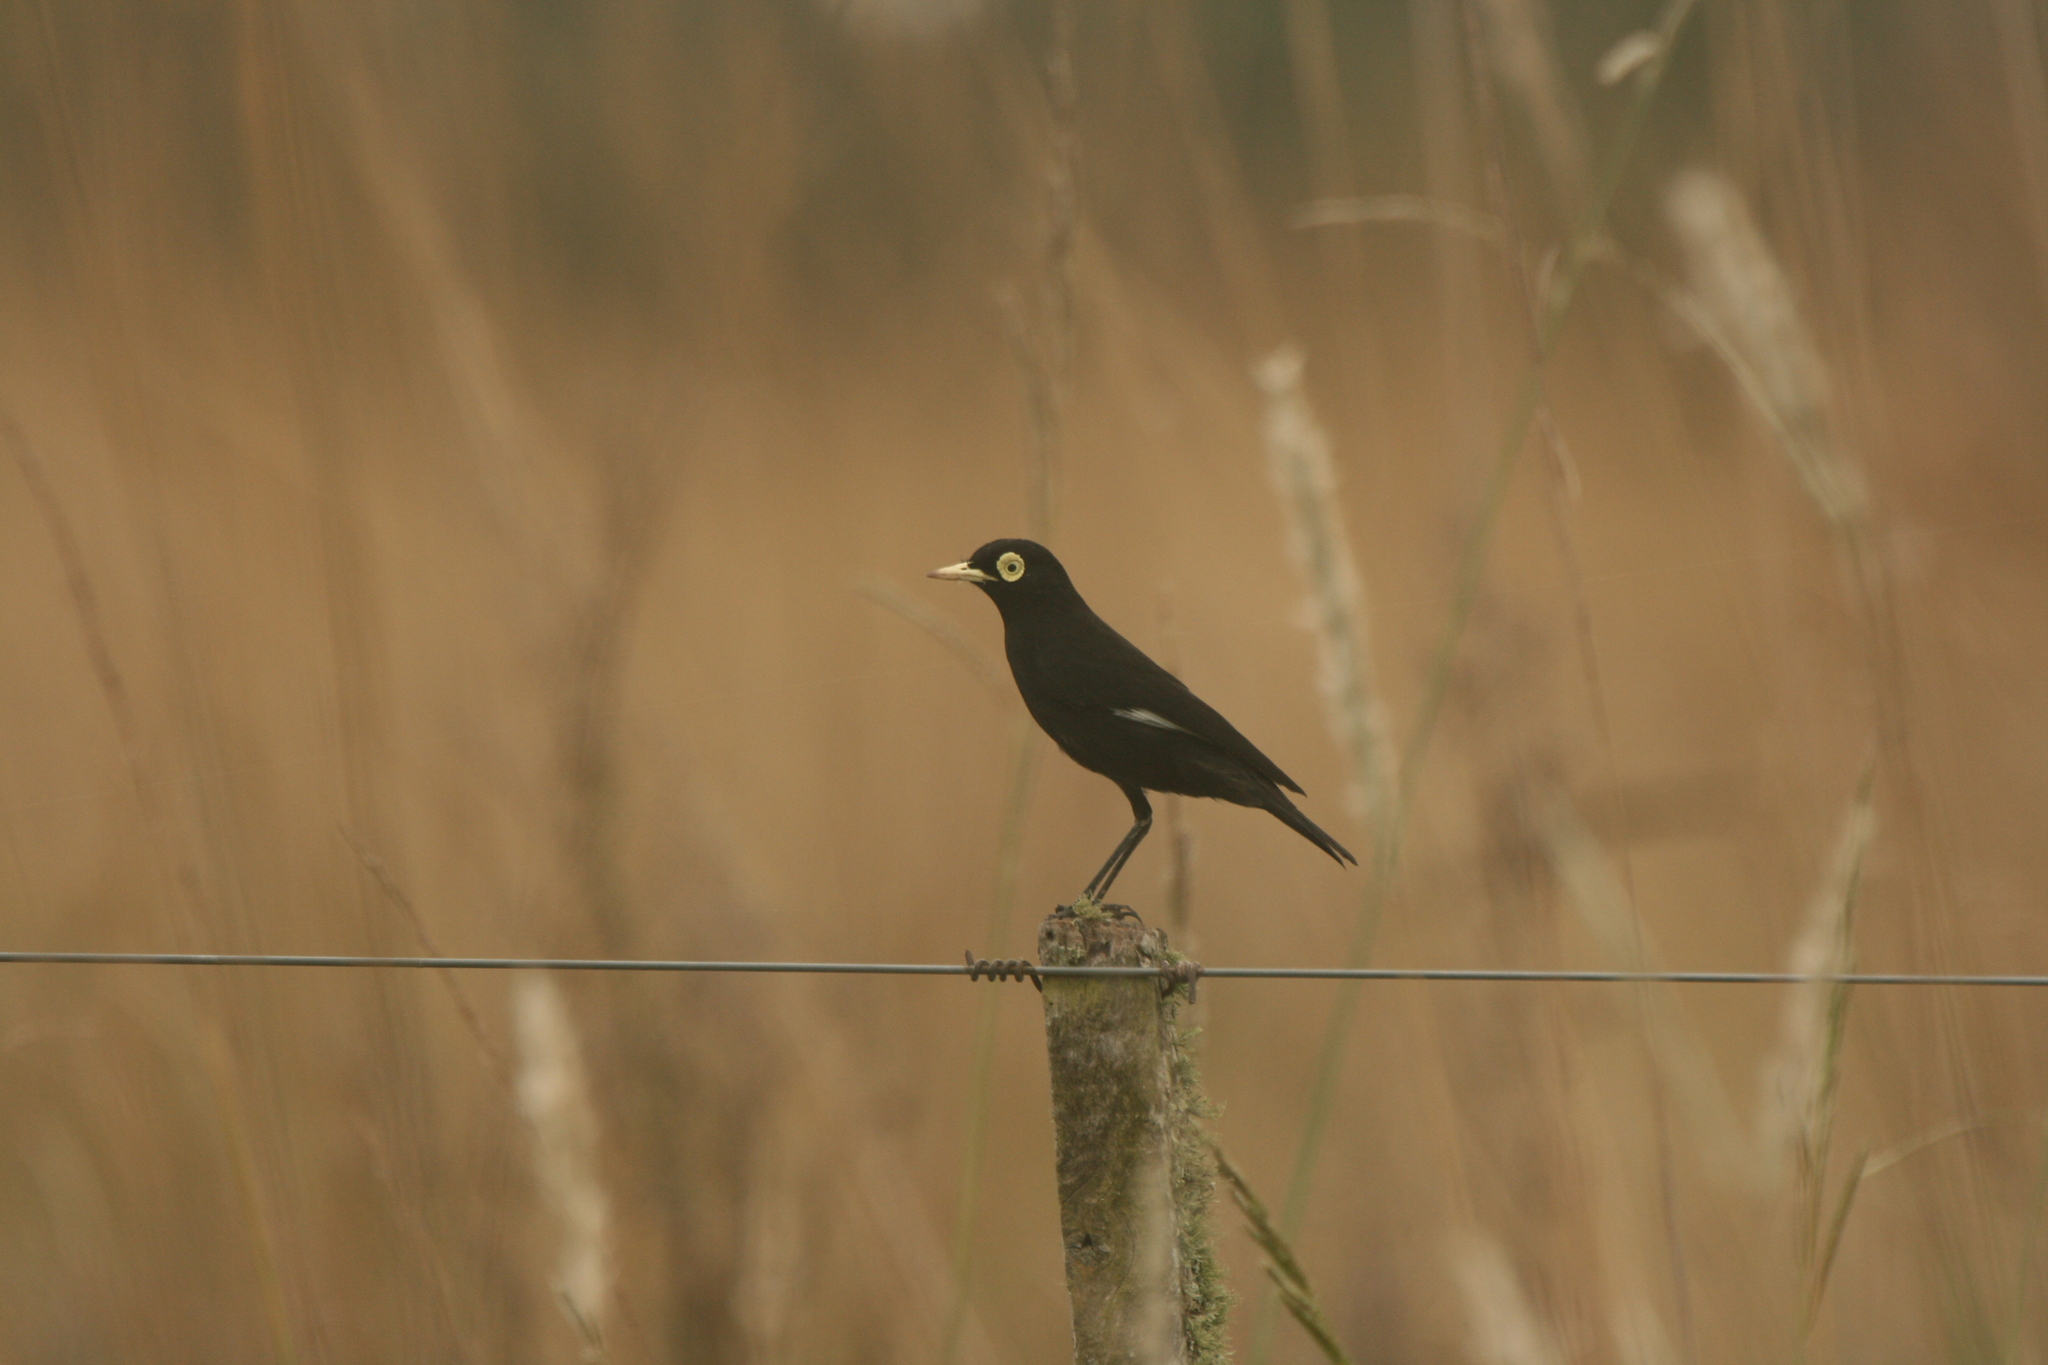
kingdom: Animalia
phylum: Chordata
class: Aves
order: Passeriformes
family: Tyrannidae
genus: Hymenops
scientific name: Hymenops perspicillatus
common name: Spectacled tyrant
